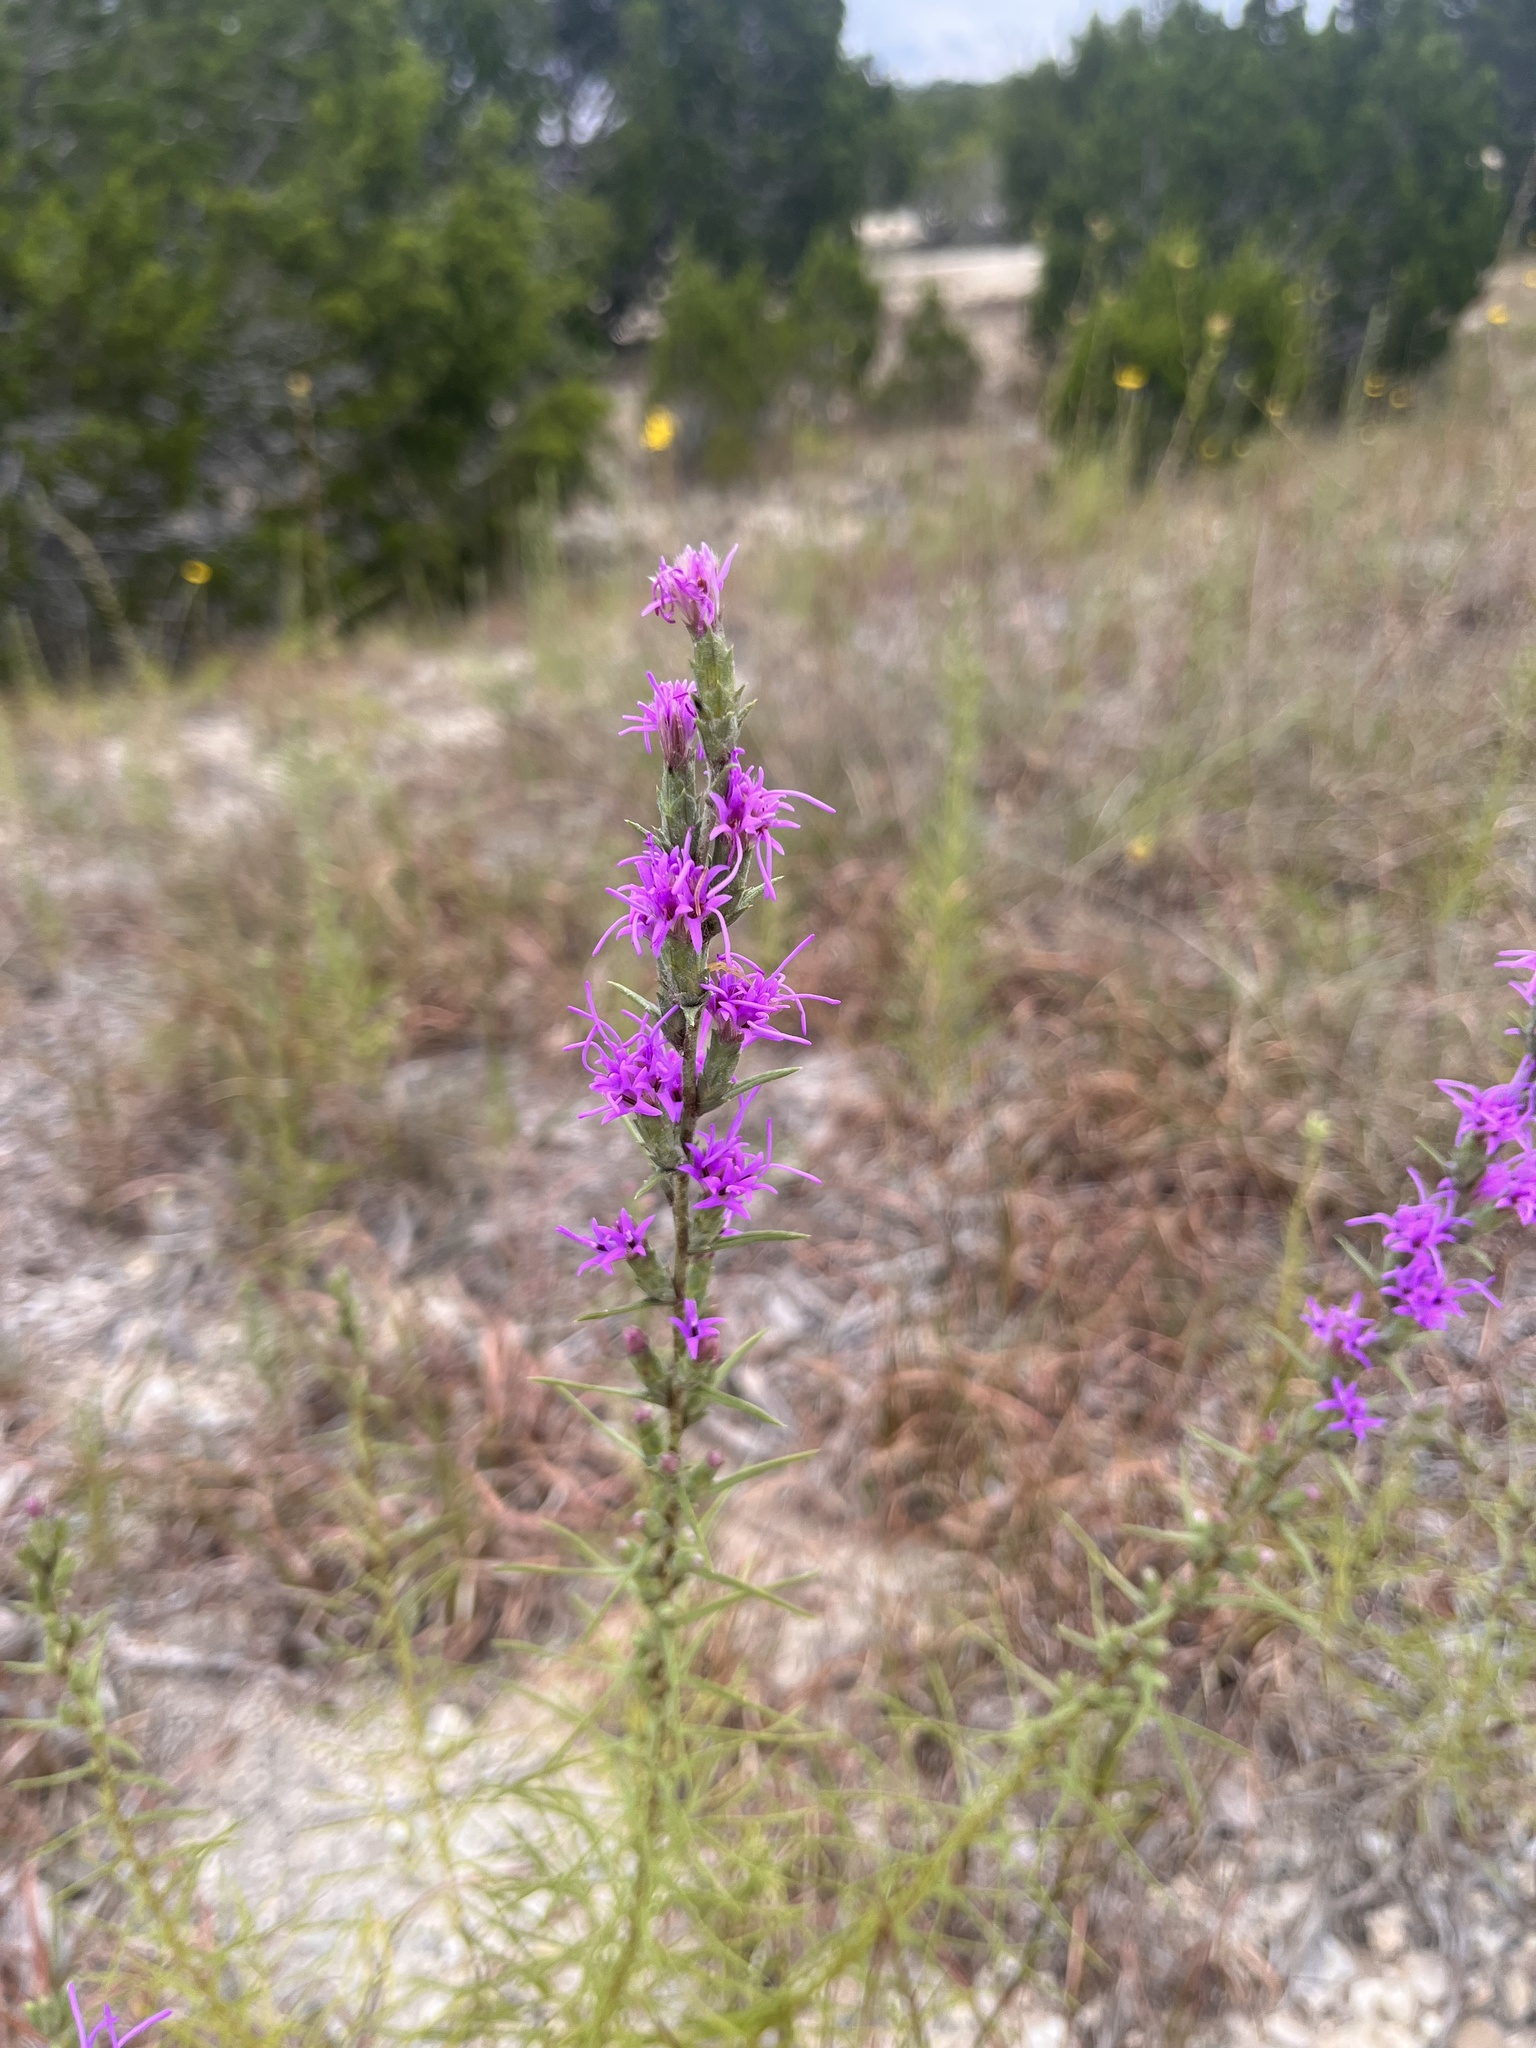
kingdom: Plantae
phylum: Tracheophyta
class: Magnoliopsida
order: Asterales
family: Asteraceae
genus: Liatris
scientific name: Liatris punctata
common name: Dotted gayfeather
